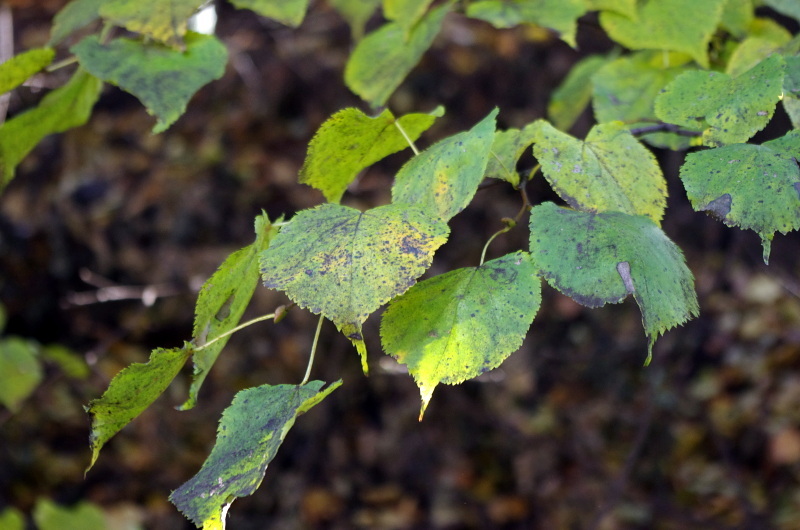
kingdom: Plantae
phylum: Tracheophyta
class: Magnoliopsida
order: Malvales
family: Malvaceae
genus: Tilia
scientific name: Tilia cordata
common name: Small-leaved lime
